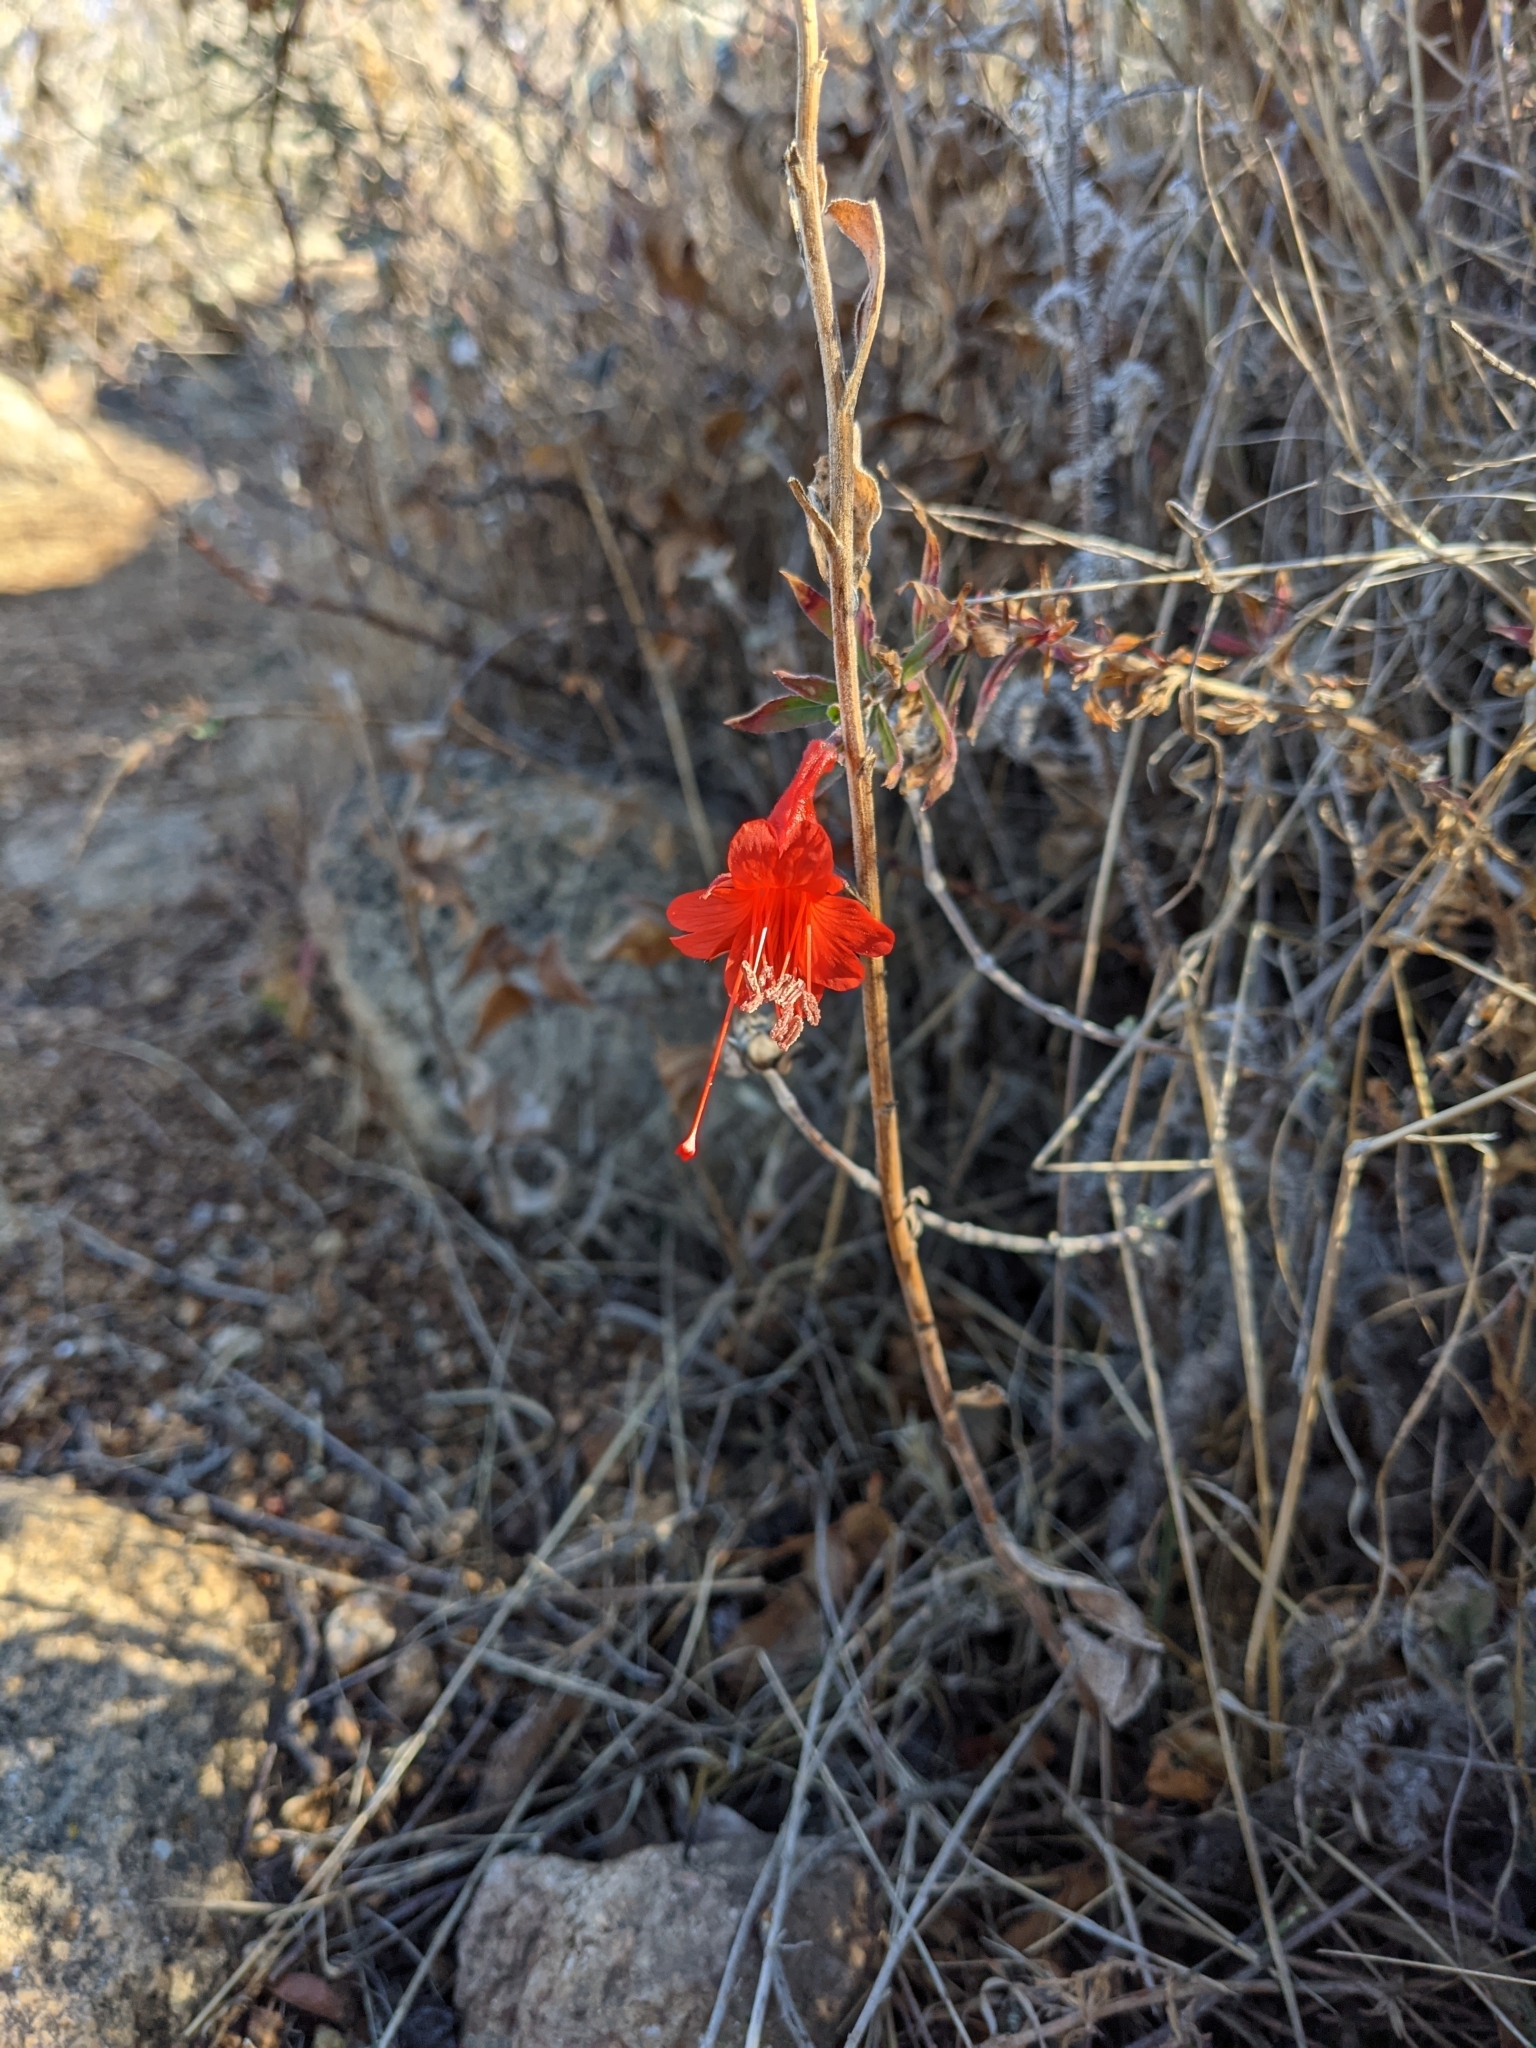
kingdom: Plantae
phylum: Tracheophyta
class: Magnoliopsida
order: Myrtales
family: Onagraceae
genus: Epilobium
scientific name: Epilobium canum
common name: California-fuchsia
